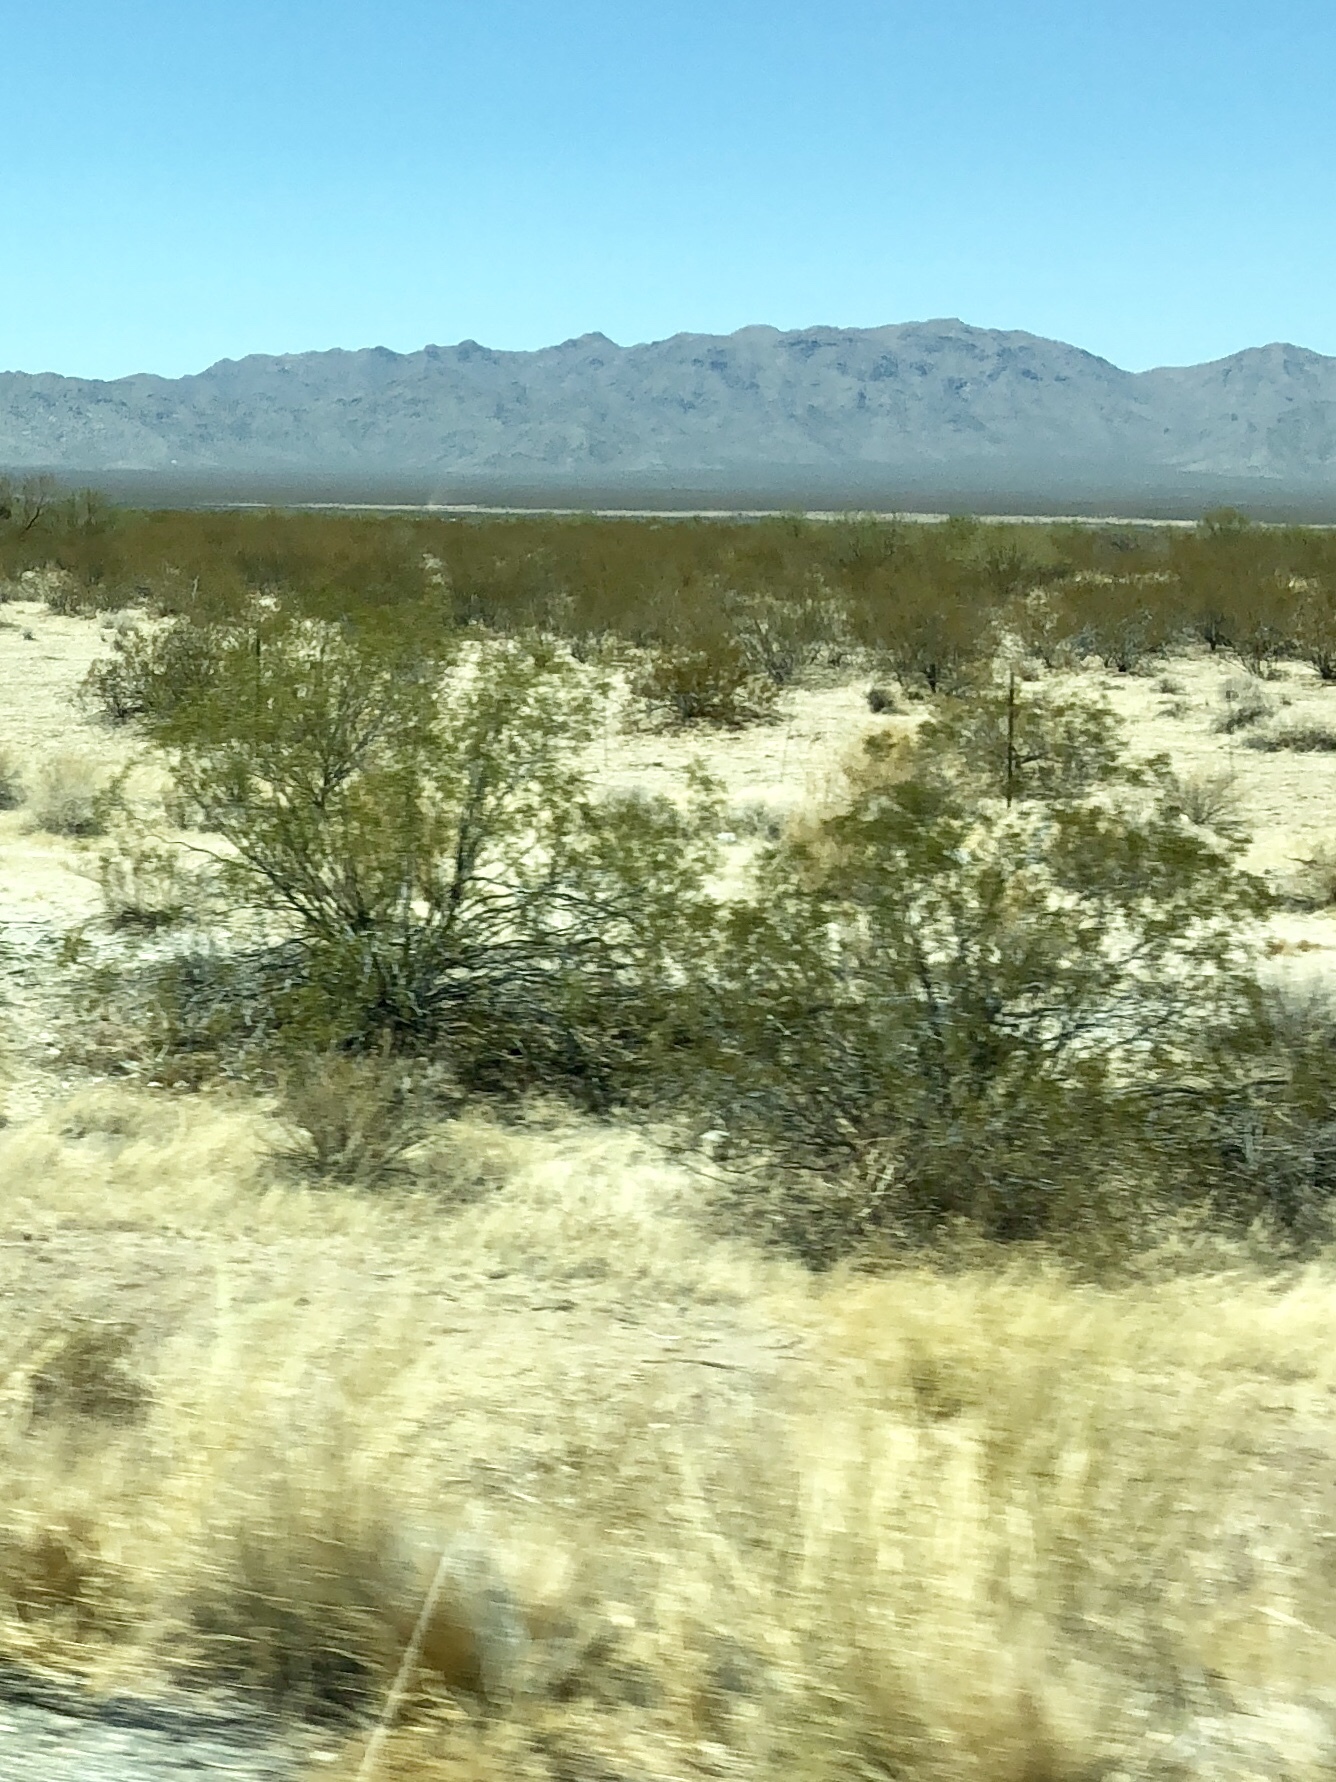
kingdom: Plantae
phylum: Tracheophyta
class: Magnoliopsida
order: Zygophyllales
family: Zygophyllaceae
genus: Larrea
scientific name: Larrea tridentata
